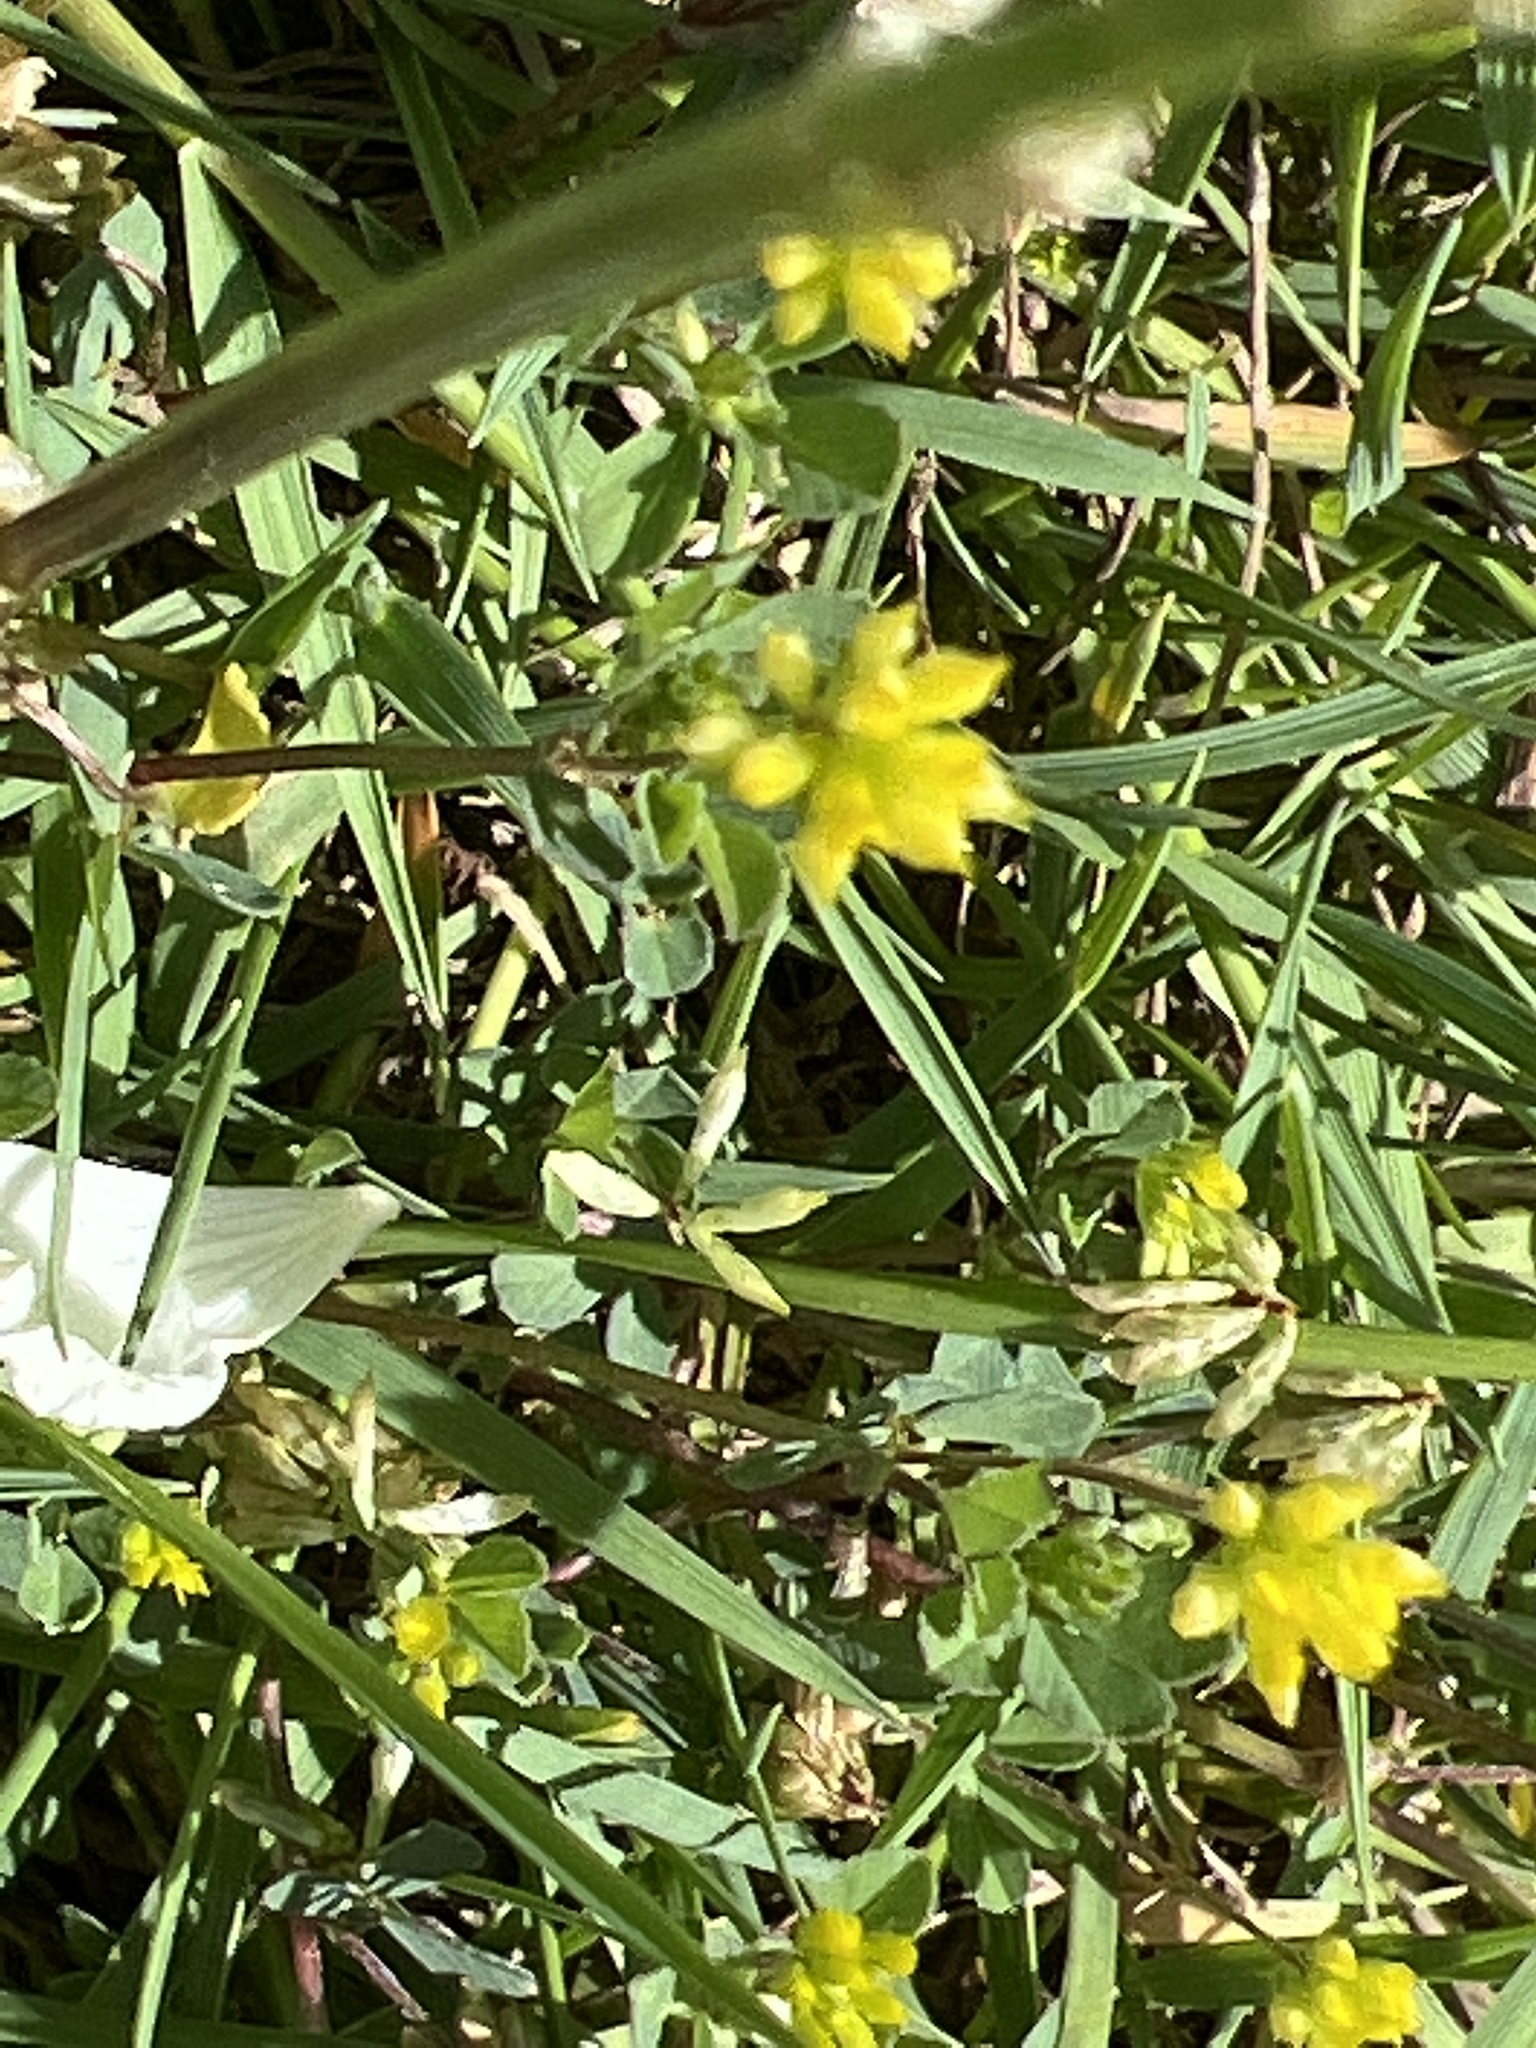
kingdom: Plantae
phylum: Tracheophyta
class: Magnoliopsida
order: Fabales
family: Fabaceae
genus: Trifolium
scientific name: Trifolium dubium
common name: Suckling clover
